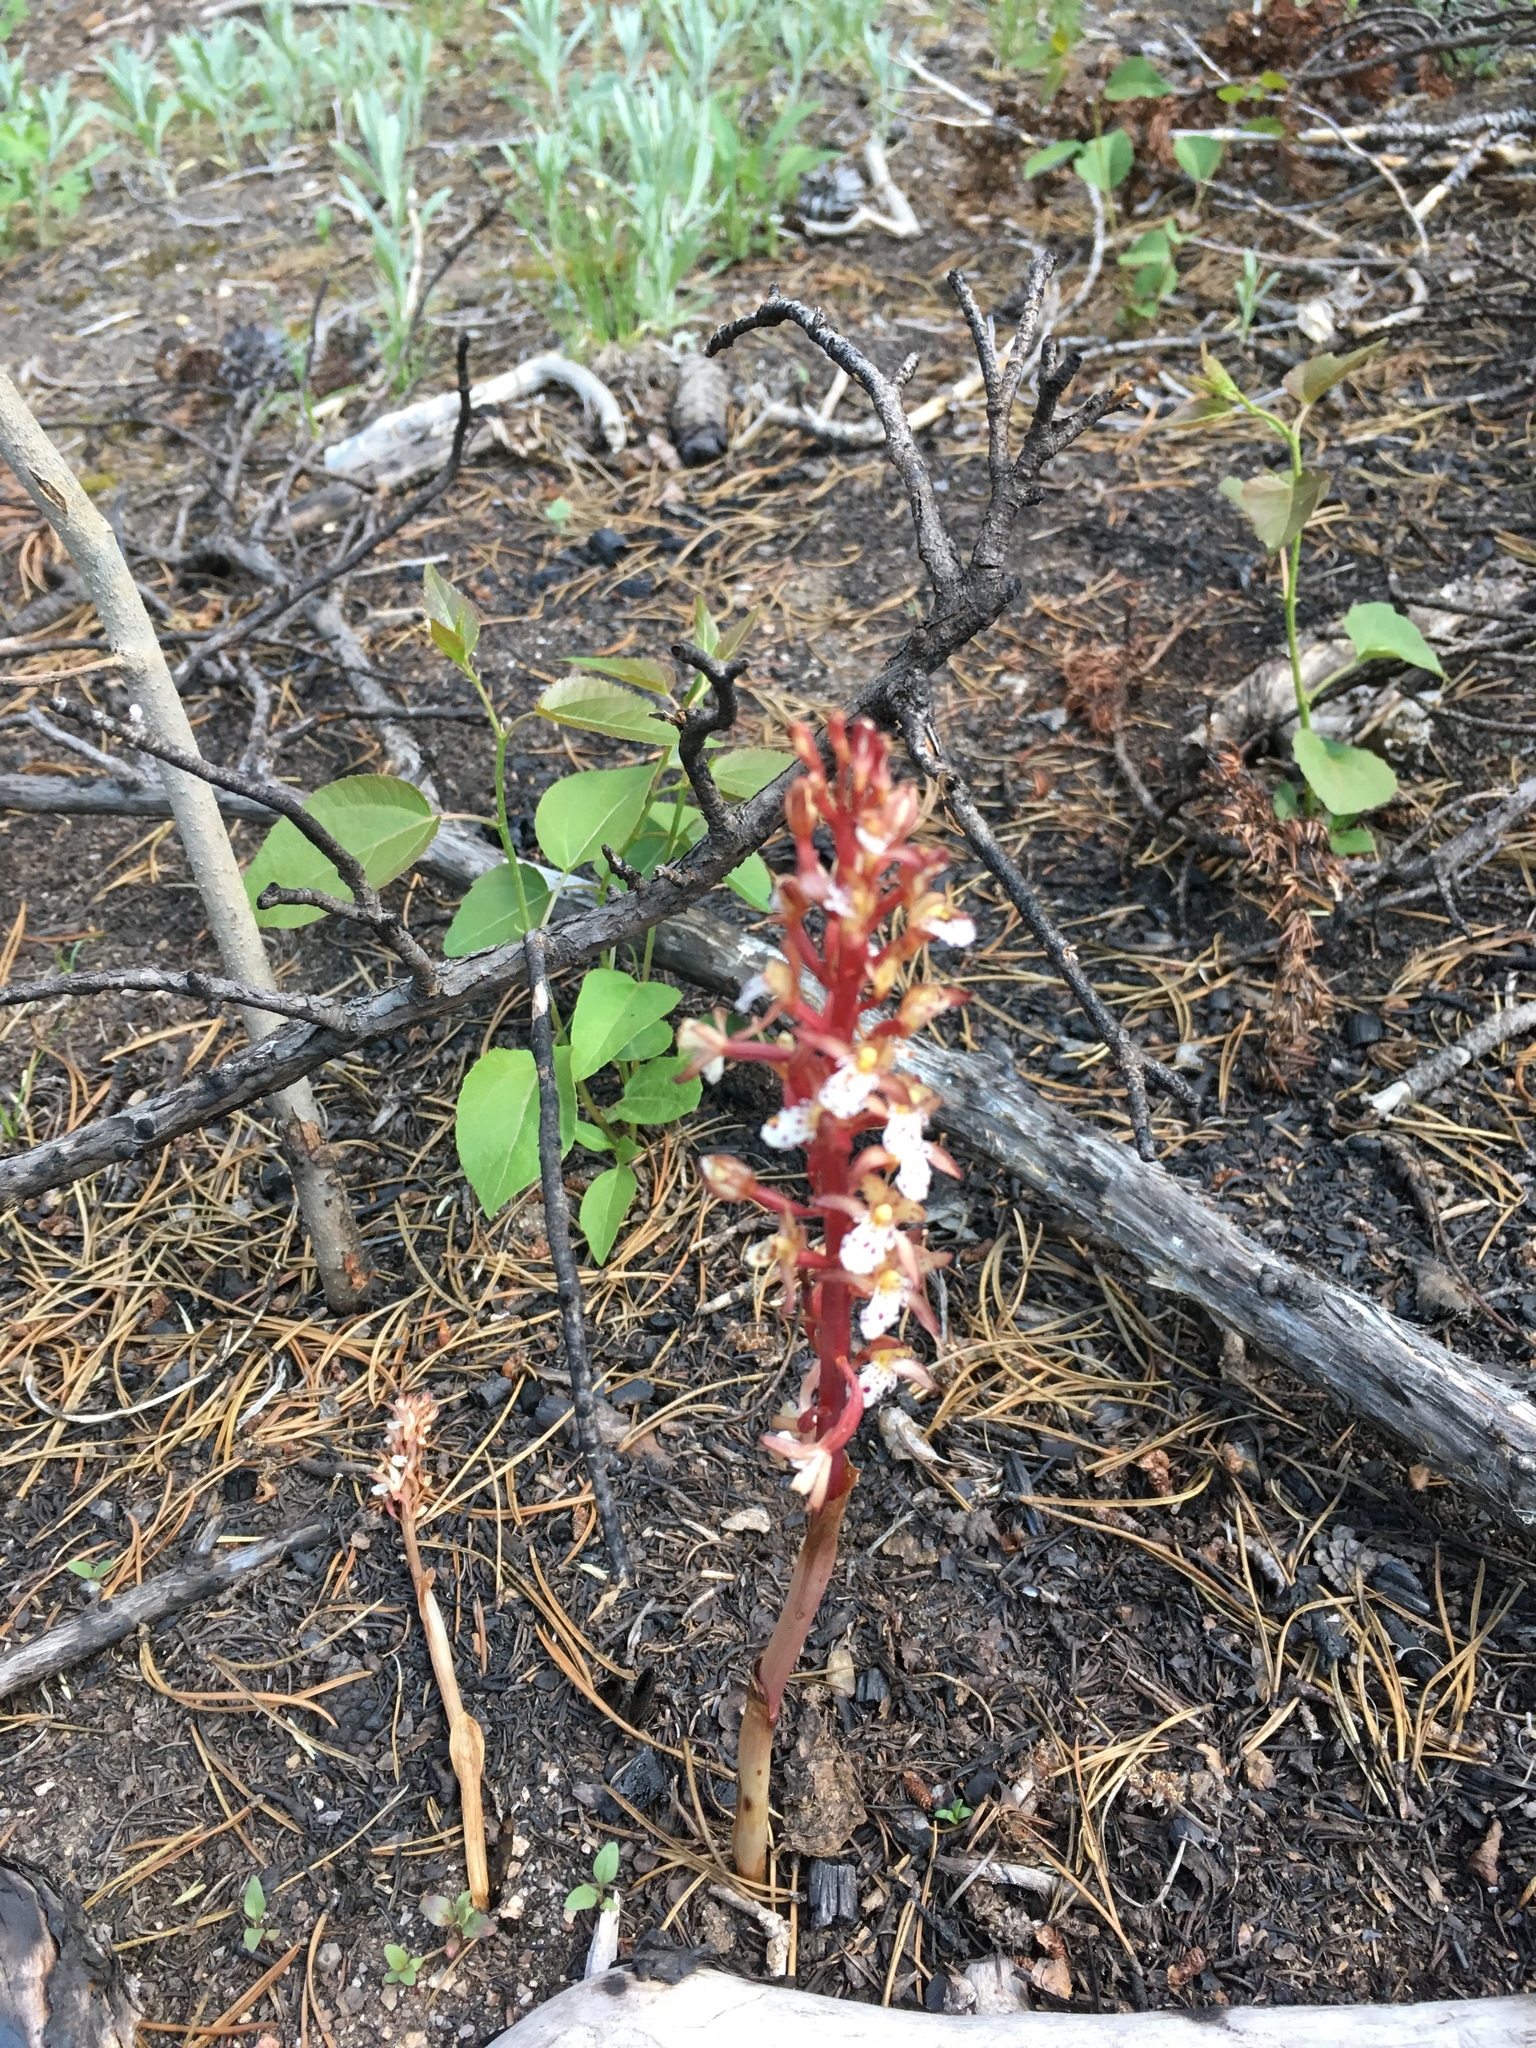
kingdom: Plantae
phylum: Tracheophyta
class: Liliopsida
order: Asparagales
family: Orchidaceae
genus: Corallorhiza
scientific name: Corallorhiza maculata
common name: Spotted coralroot
